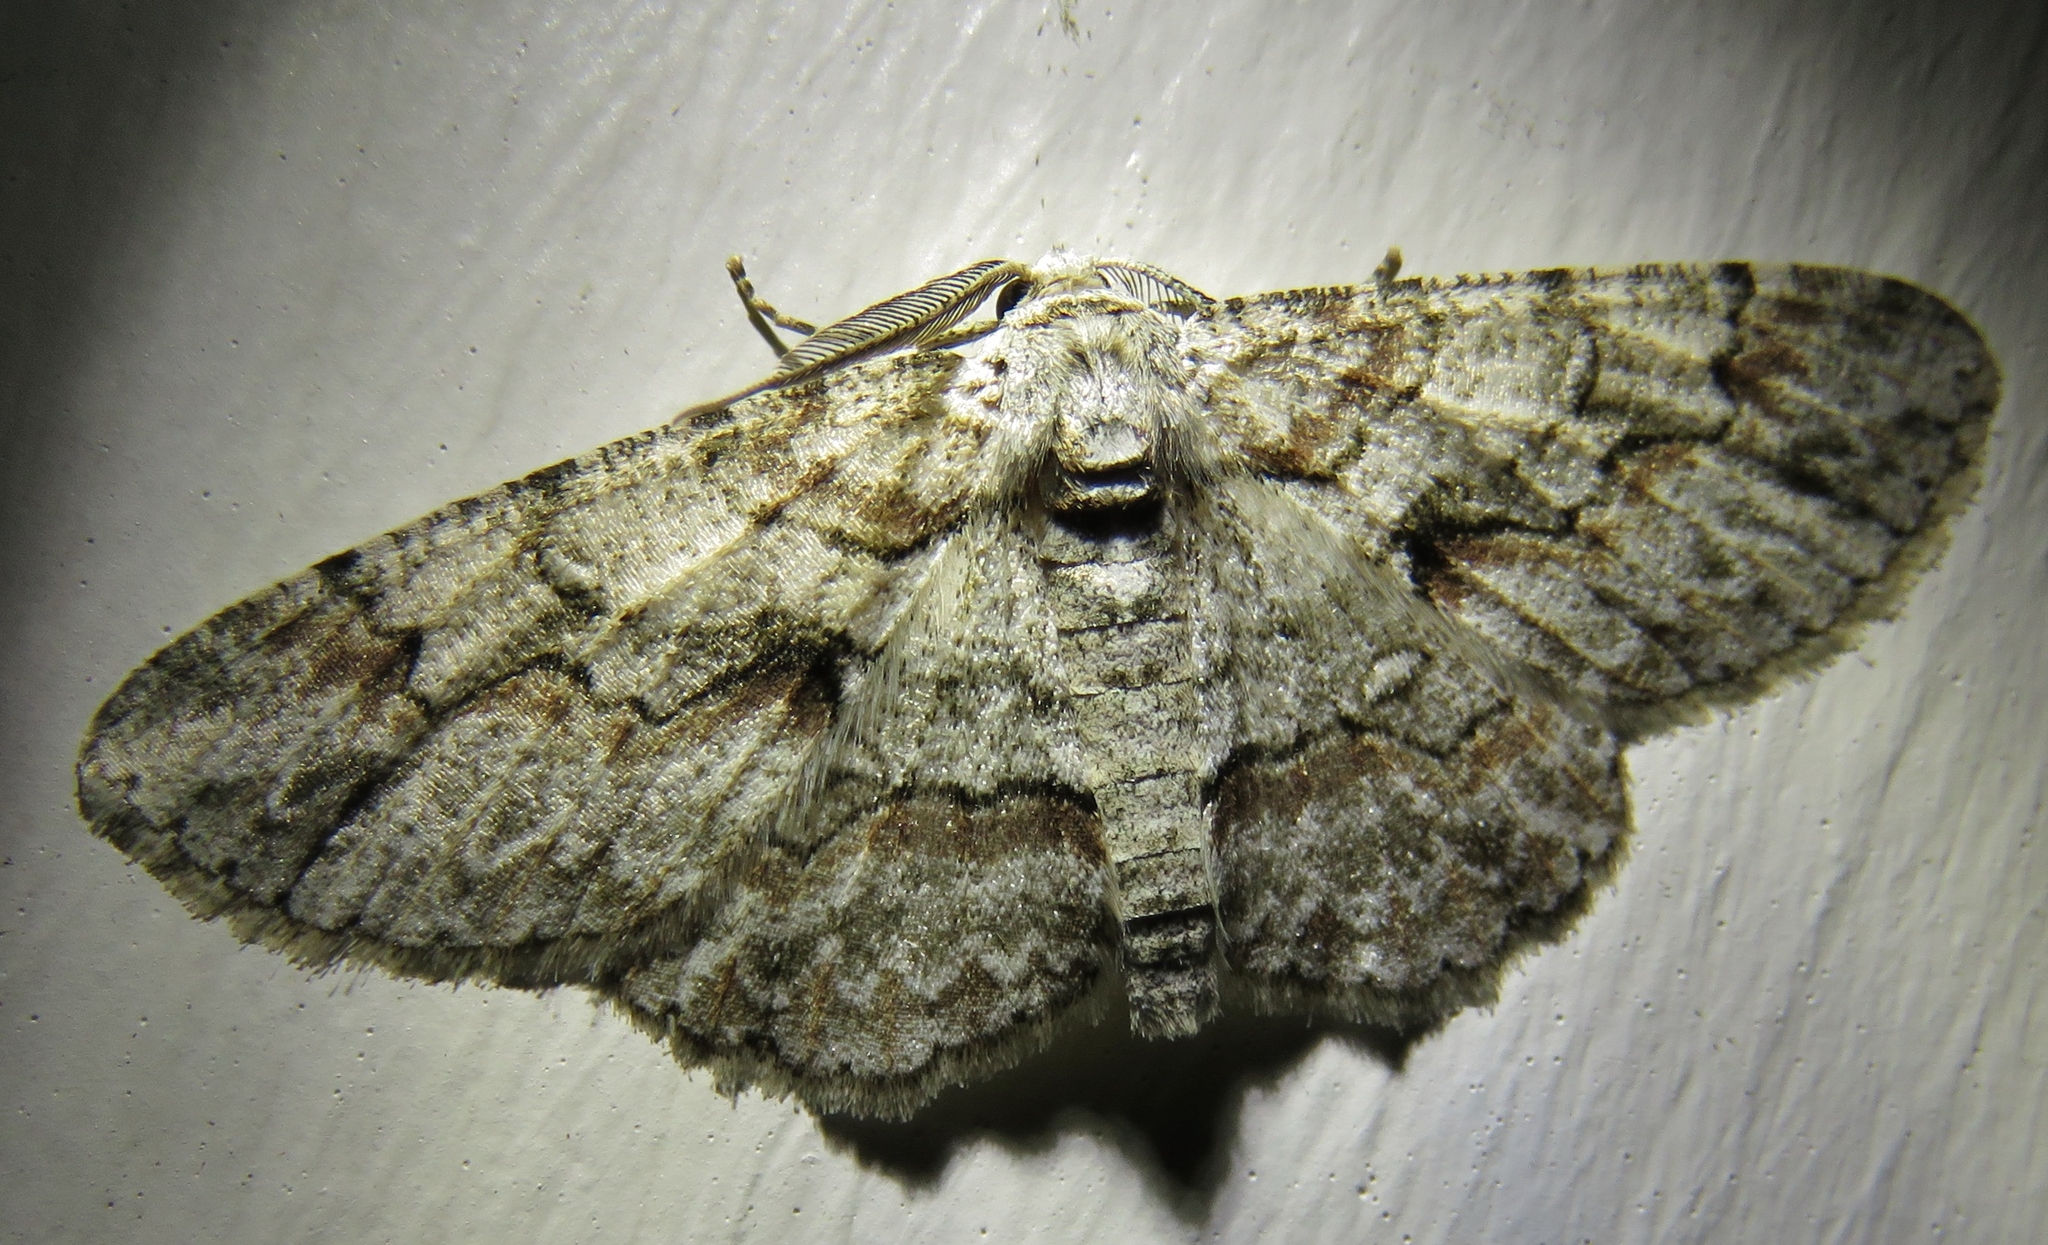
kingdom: Animalia
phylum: Arthropoda
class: Insecta
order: Lepidoptera
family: Geometridae
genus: Iridopsis
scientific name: Iridopsis defectaria
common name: Brown-shaded gray
